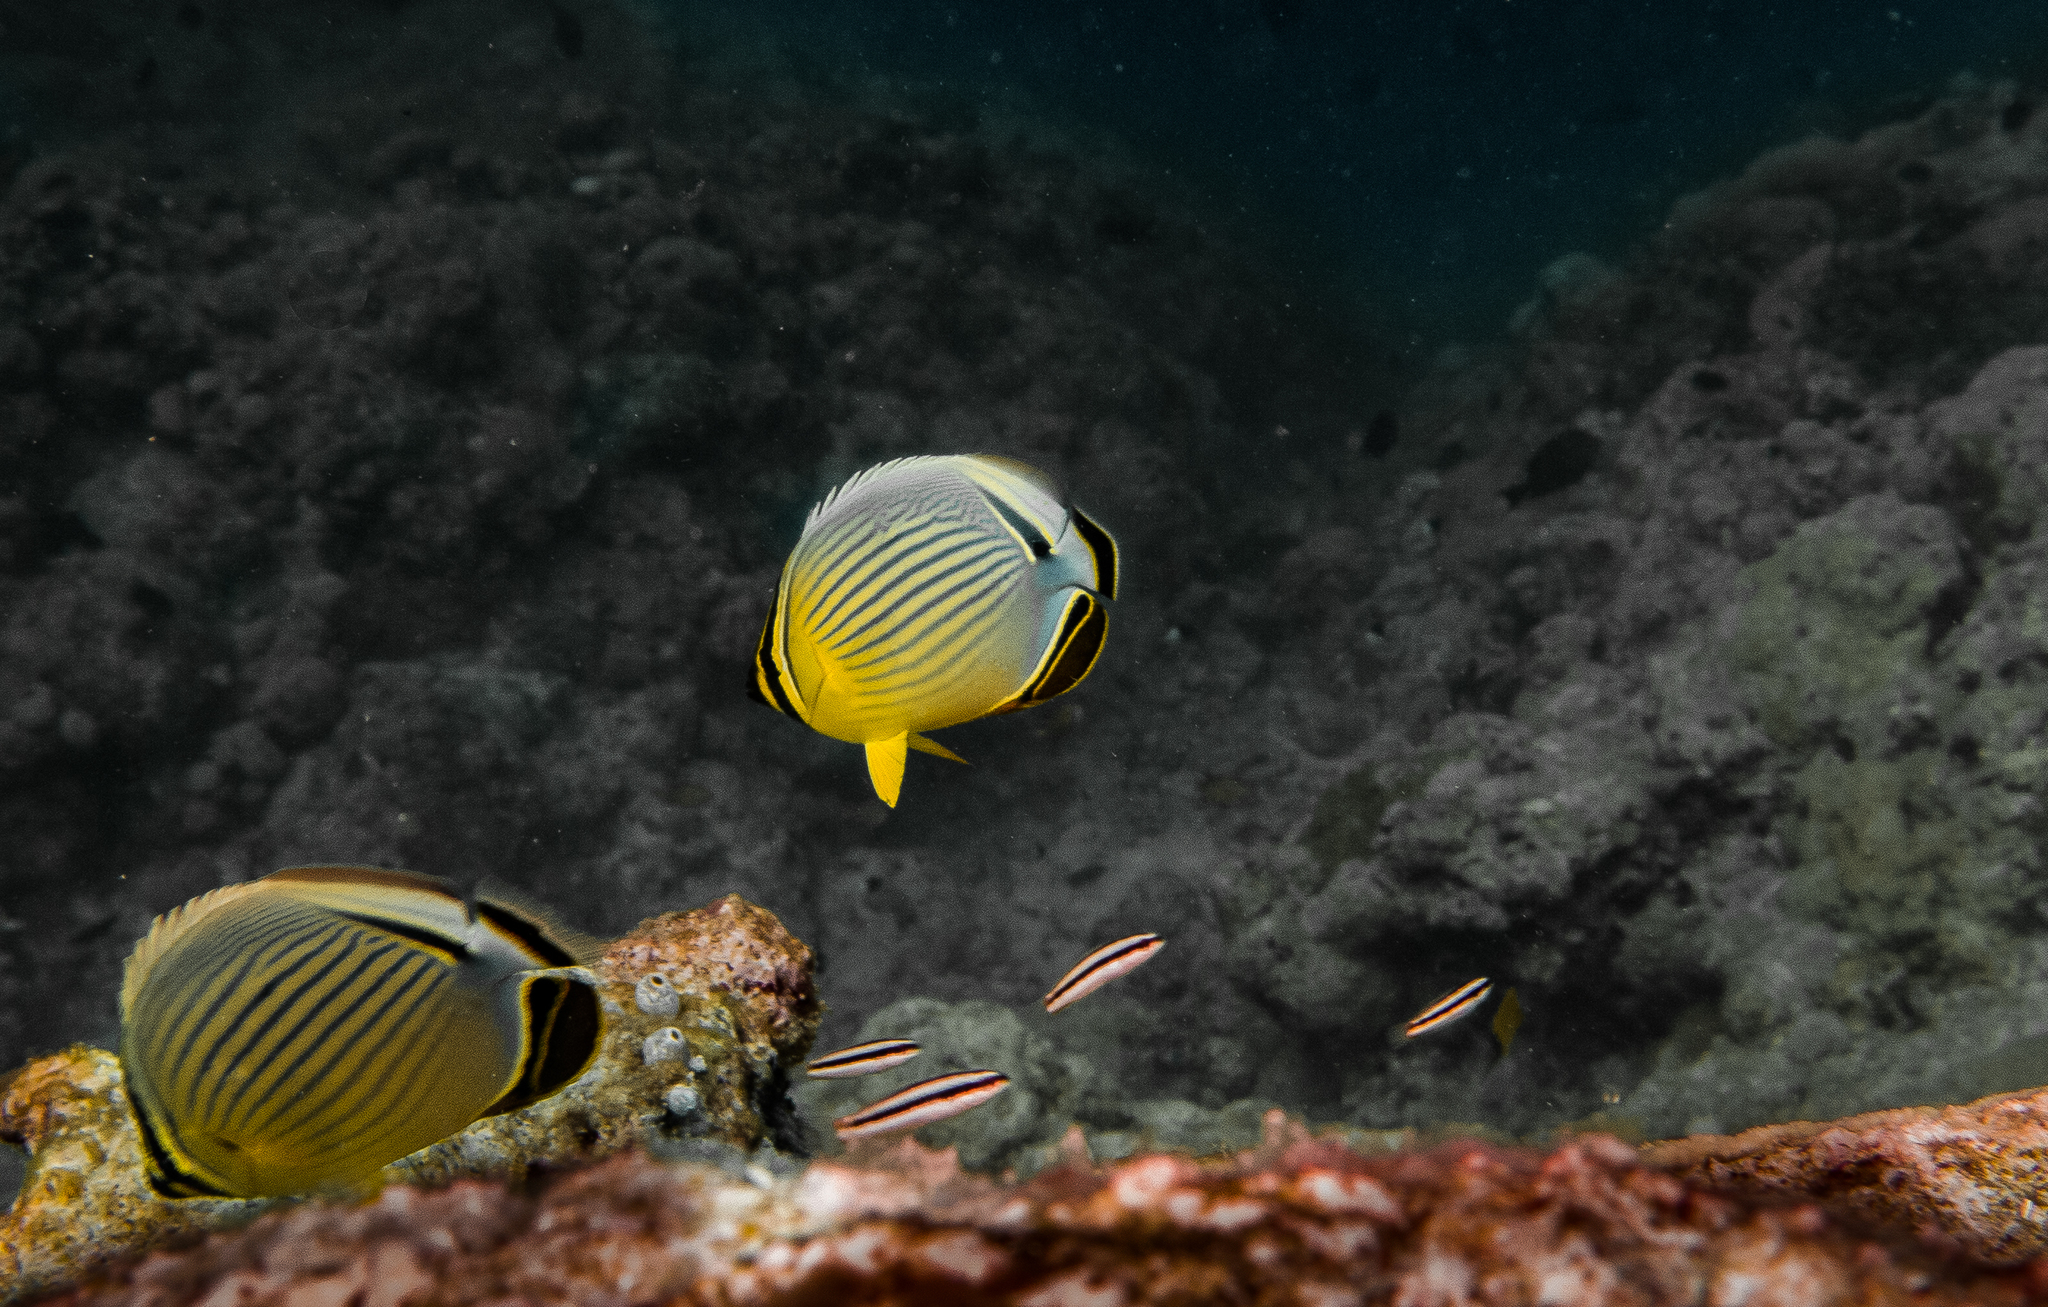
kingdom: Animalia
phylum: Chordata
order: Perciformes
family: Chaetodontidae
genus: Chaetodon
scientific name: Chaetodon lunulatus
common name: Redfin butterflyfish
